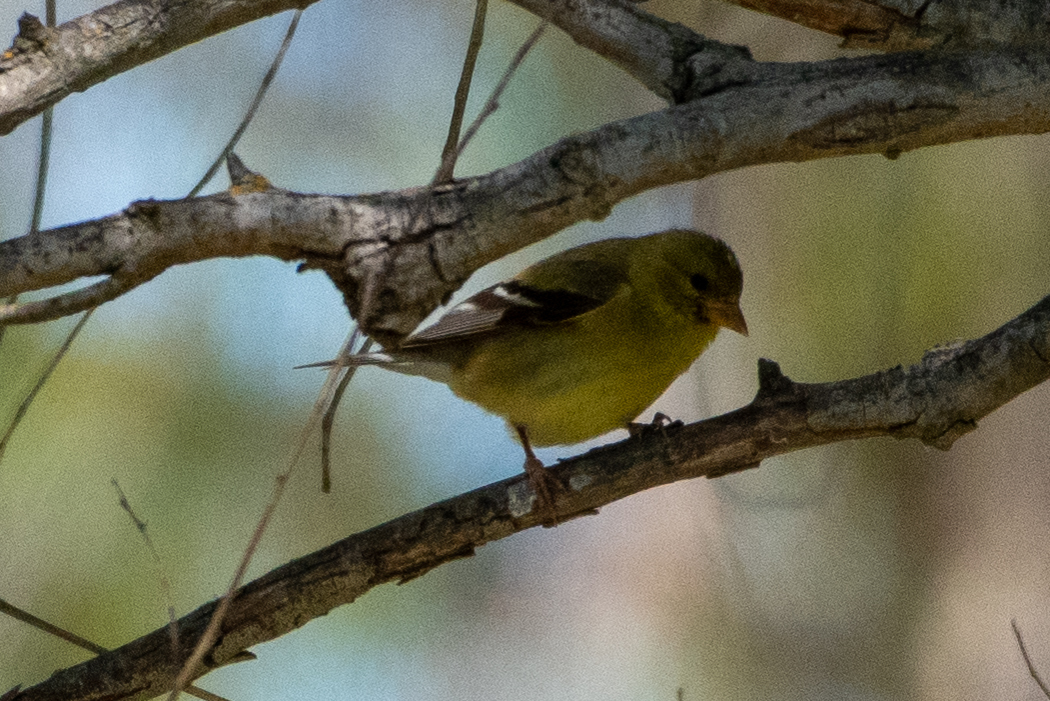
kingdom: Animalia
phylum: Chordata
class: Aves
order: Passeriformes
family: Fringillidae
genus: Spinus
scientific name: Spinus tristis
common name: American goldfinch
